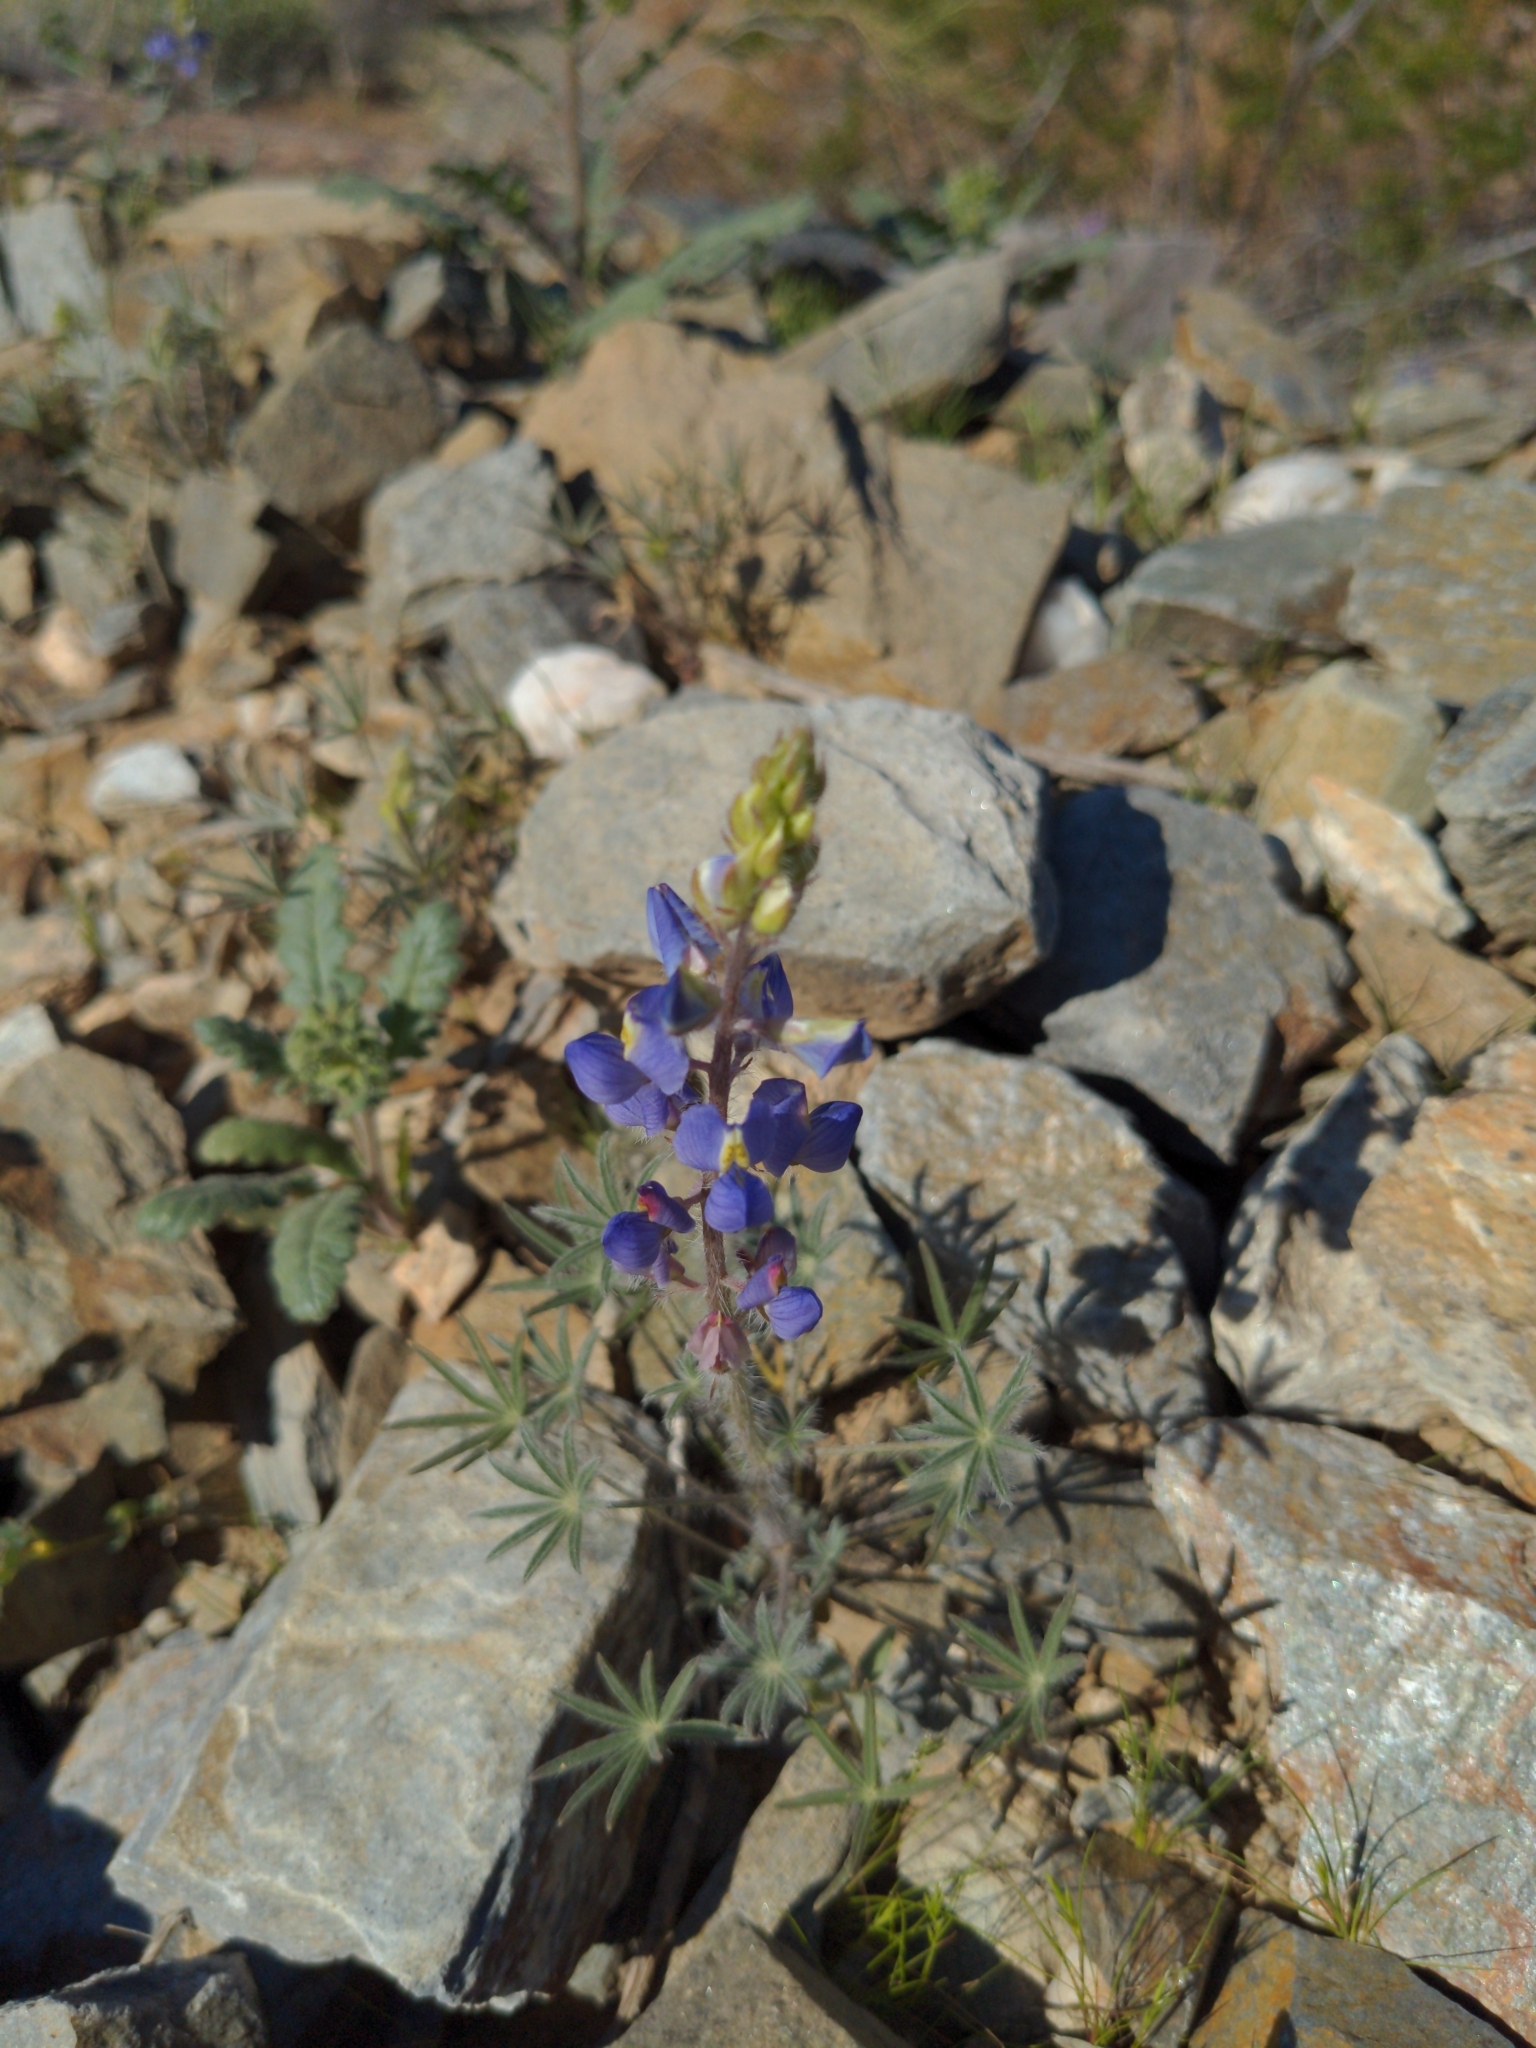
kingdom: Plantae
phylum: Tracheophyta
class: Magnoliopsida
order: Fabales
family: Fabaceae
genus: Lupinus
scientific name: Lupinus sparsiflorus
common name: Coulter's lupine
